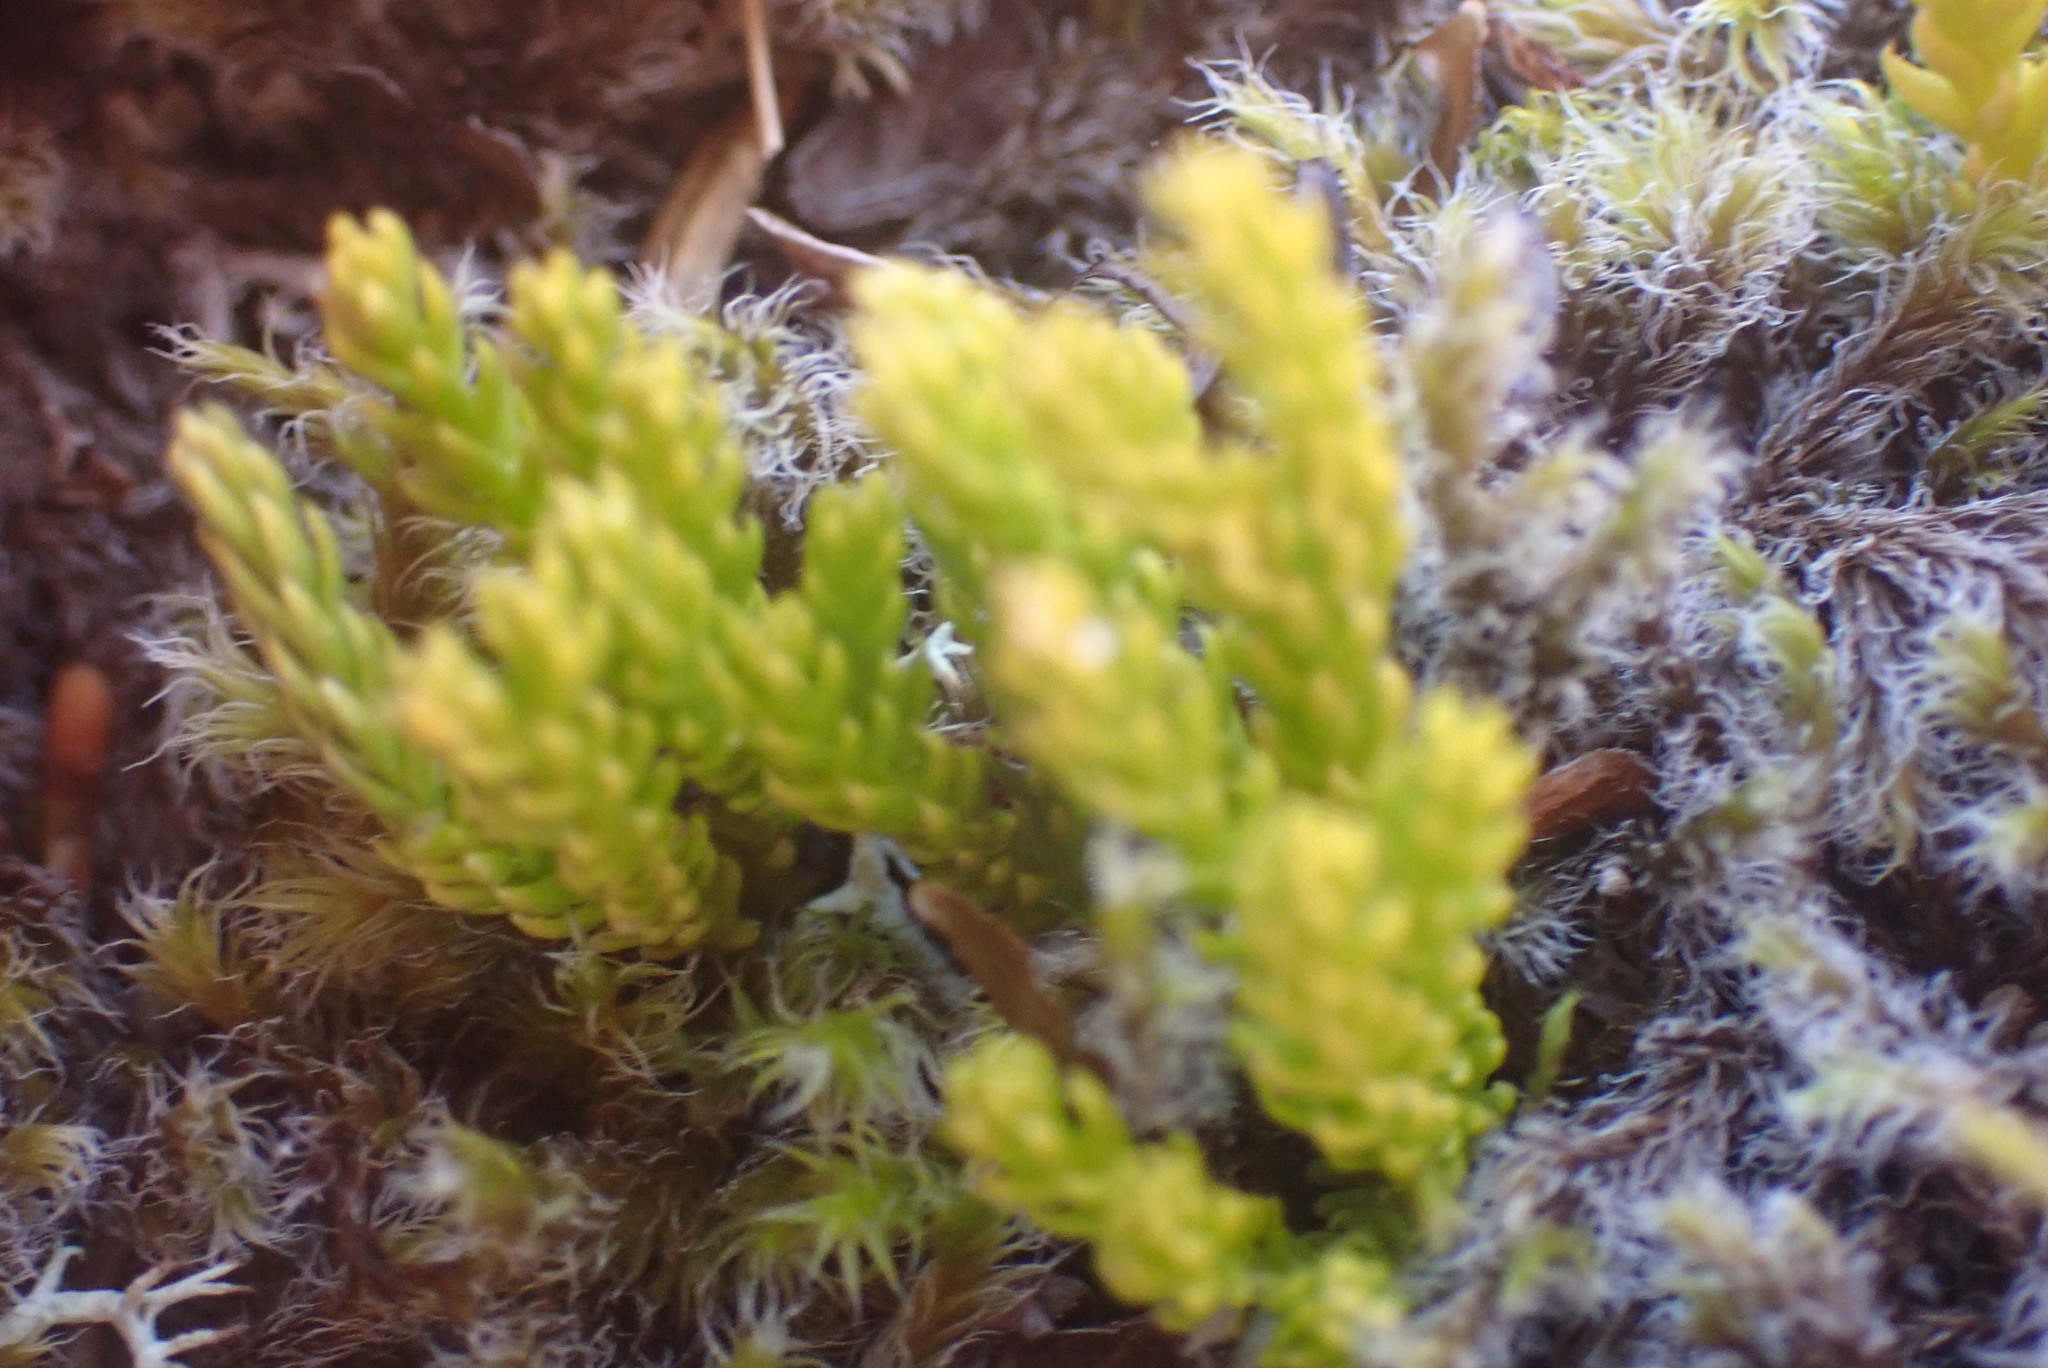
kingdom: Plantae
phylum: Tracheophyta
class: Lycopodiopsida
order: Lycopodiales
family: Lycopodiaceae
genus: Diphasiastrum
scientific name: Diphasiastrum sitchense
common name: Alaska clubmoss
